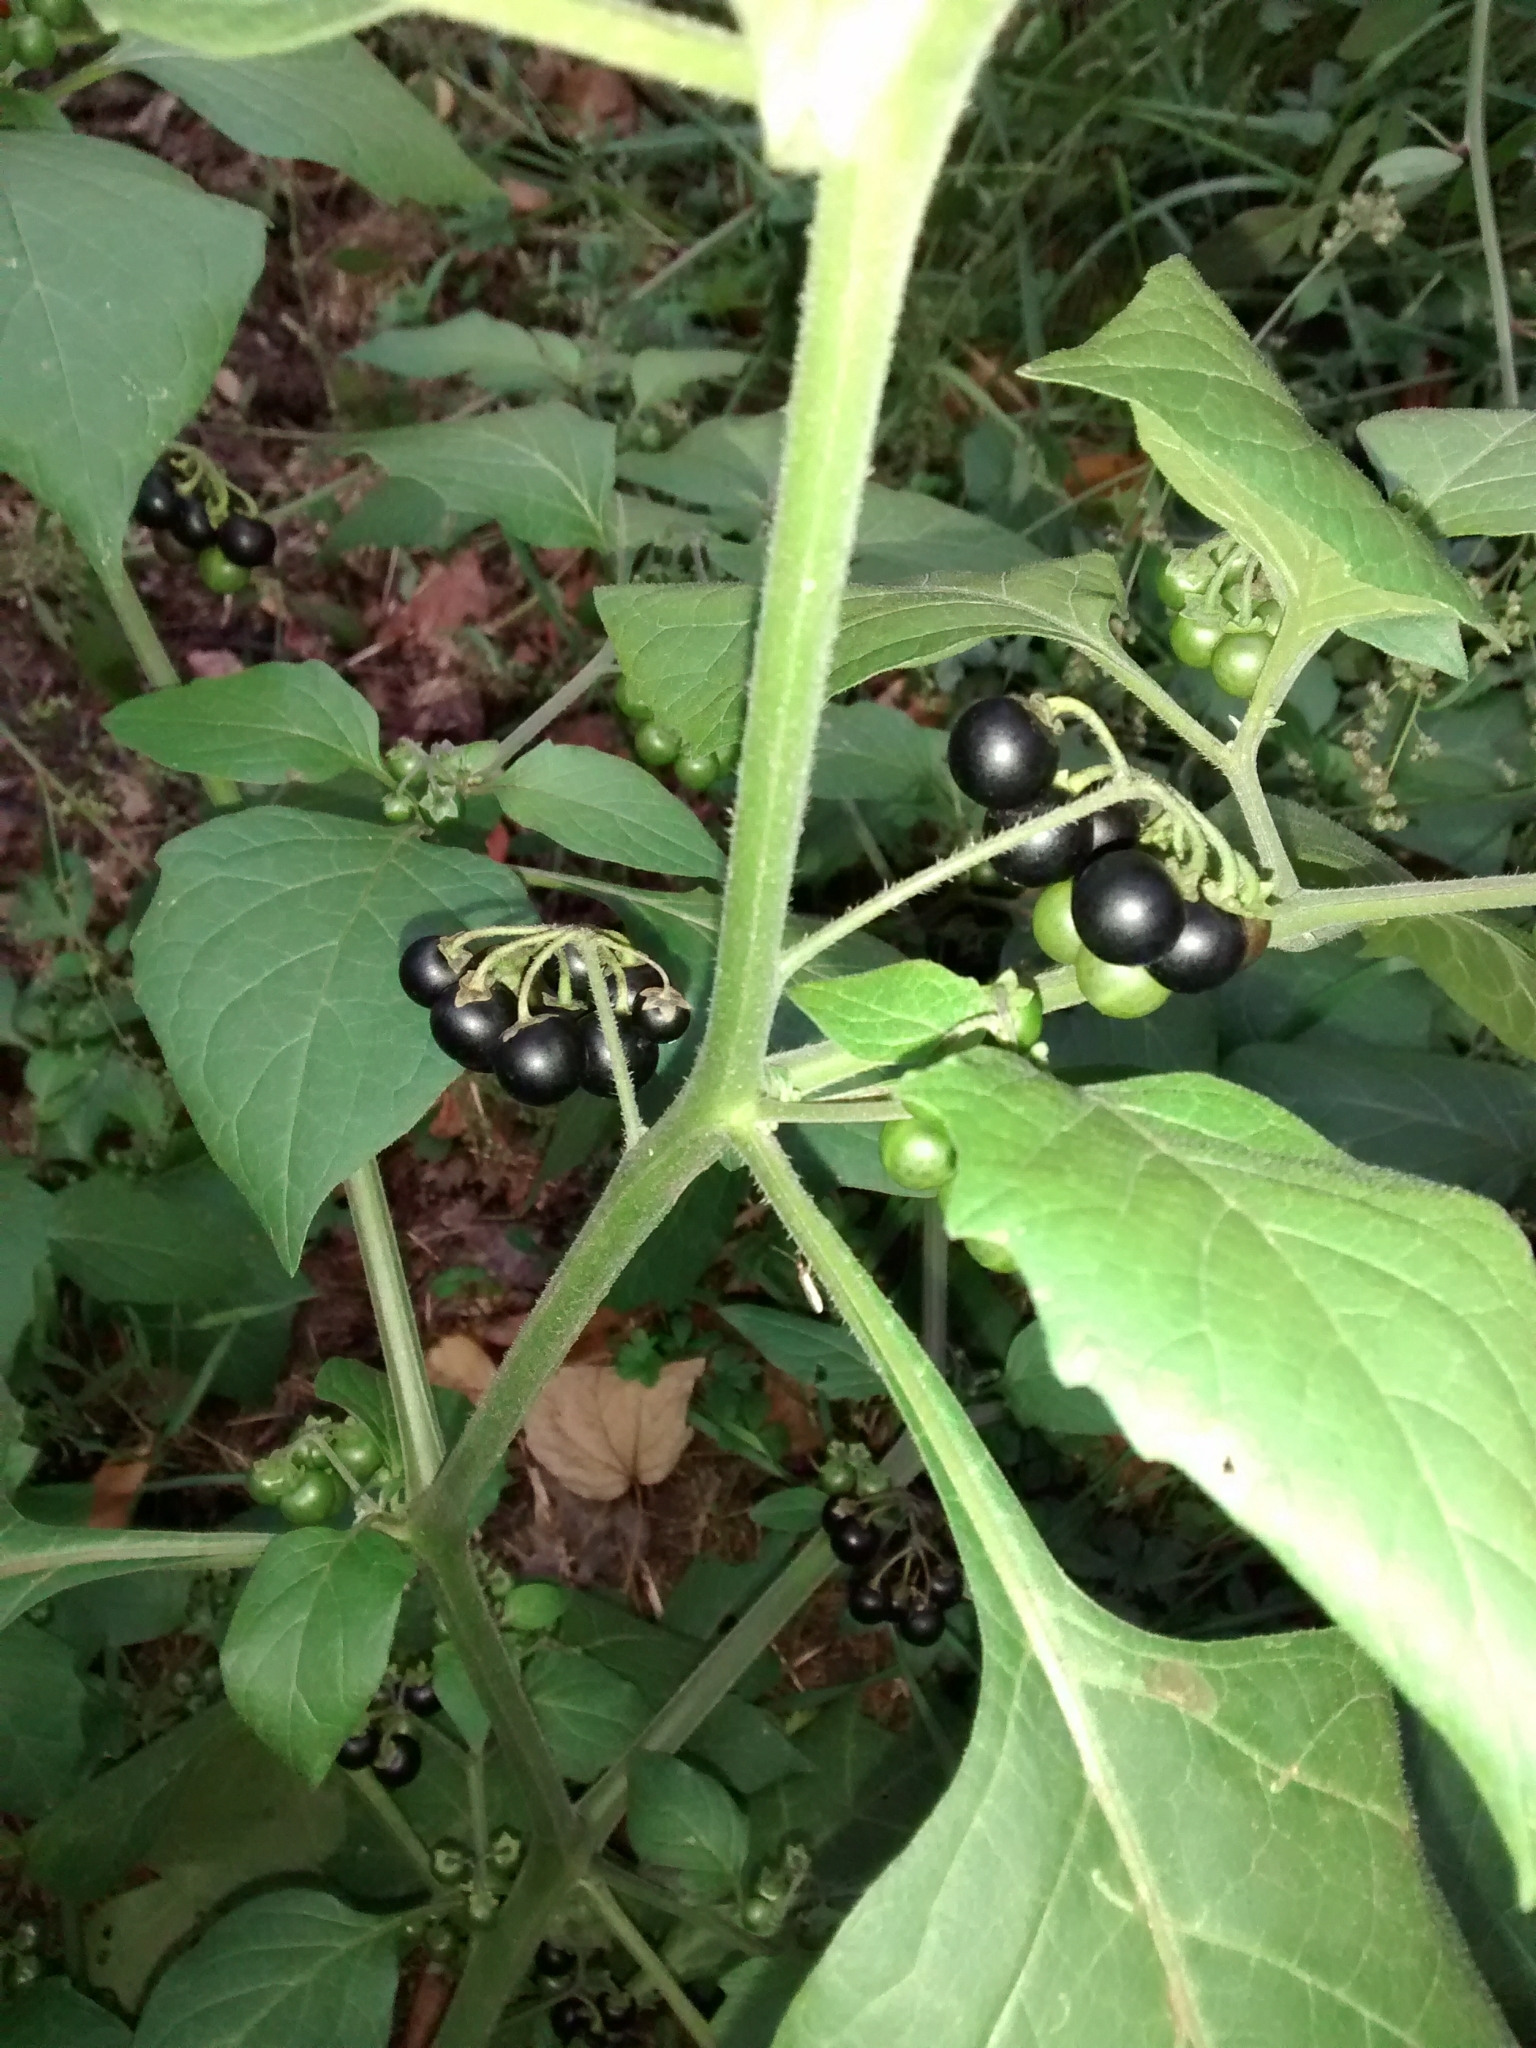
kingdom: Plantae
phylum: Tracheophyta
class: Magnoliopsida
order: Solanales
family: Solanaceae
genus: Solanum
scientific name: Solanum nigrum
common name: Black nightshade
